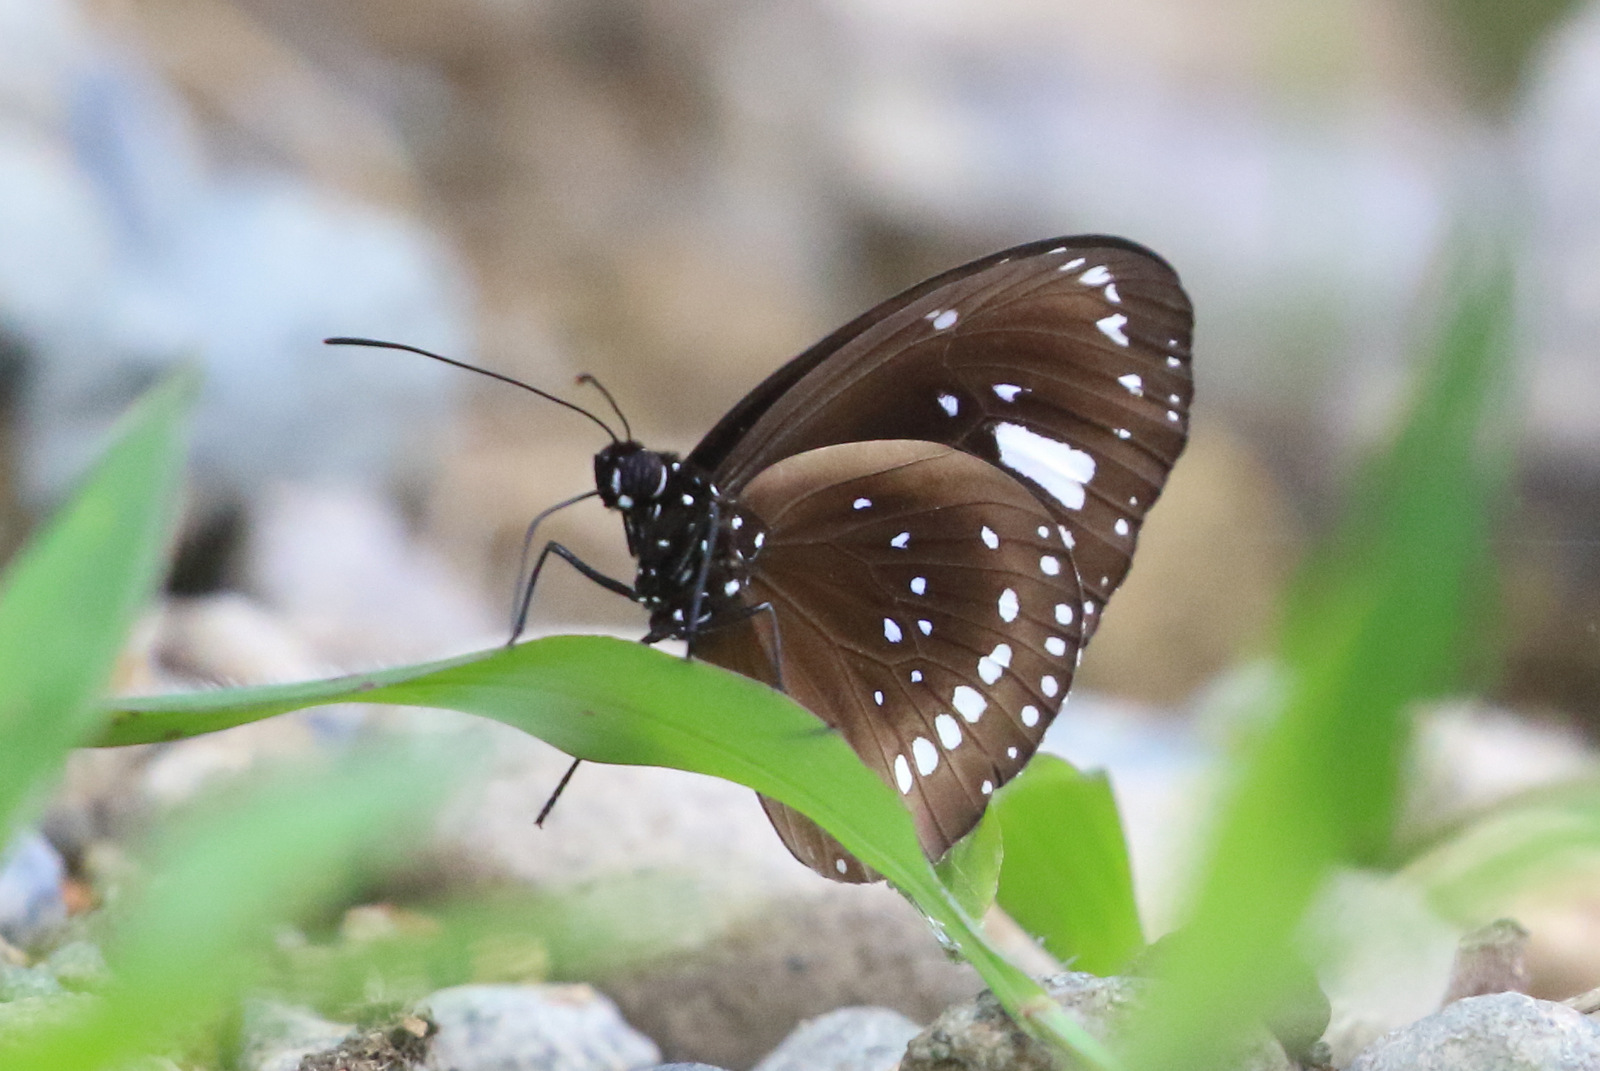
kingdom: Animalia
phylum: Arthropoda
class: Insecta
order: Lepidoptera
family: Nymphalidae
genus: Euploea
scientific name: Euploea lewinii
